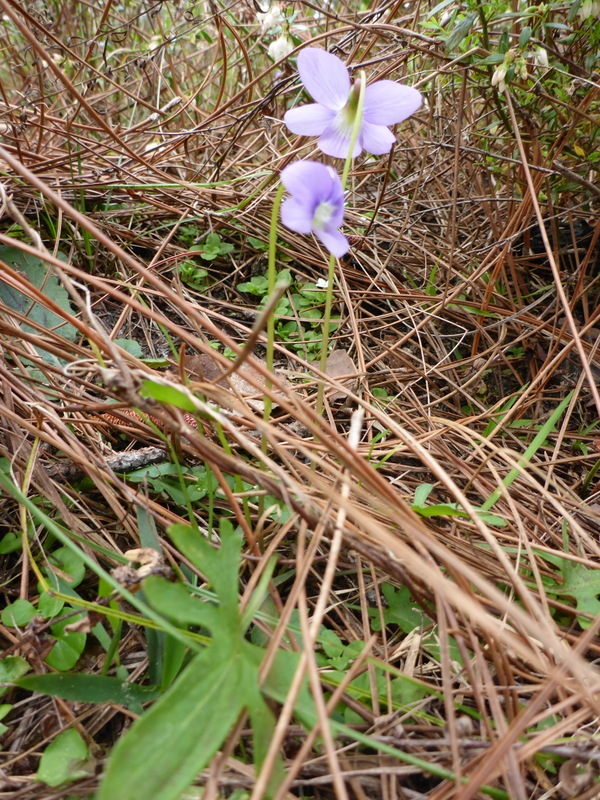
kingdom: Plantae
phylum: Tracheophyta
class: Magnoliopsida
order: Malpighiales
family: Violaceae
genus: Viola
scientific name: Viola septemloba
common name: Southern coast violet
